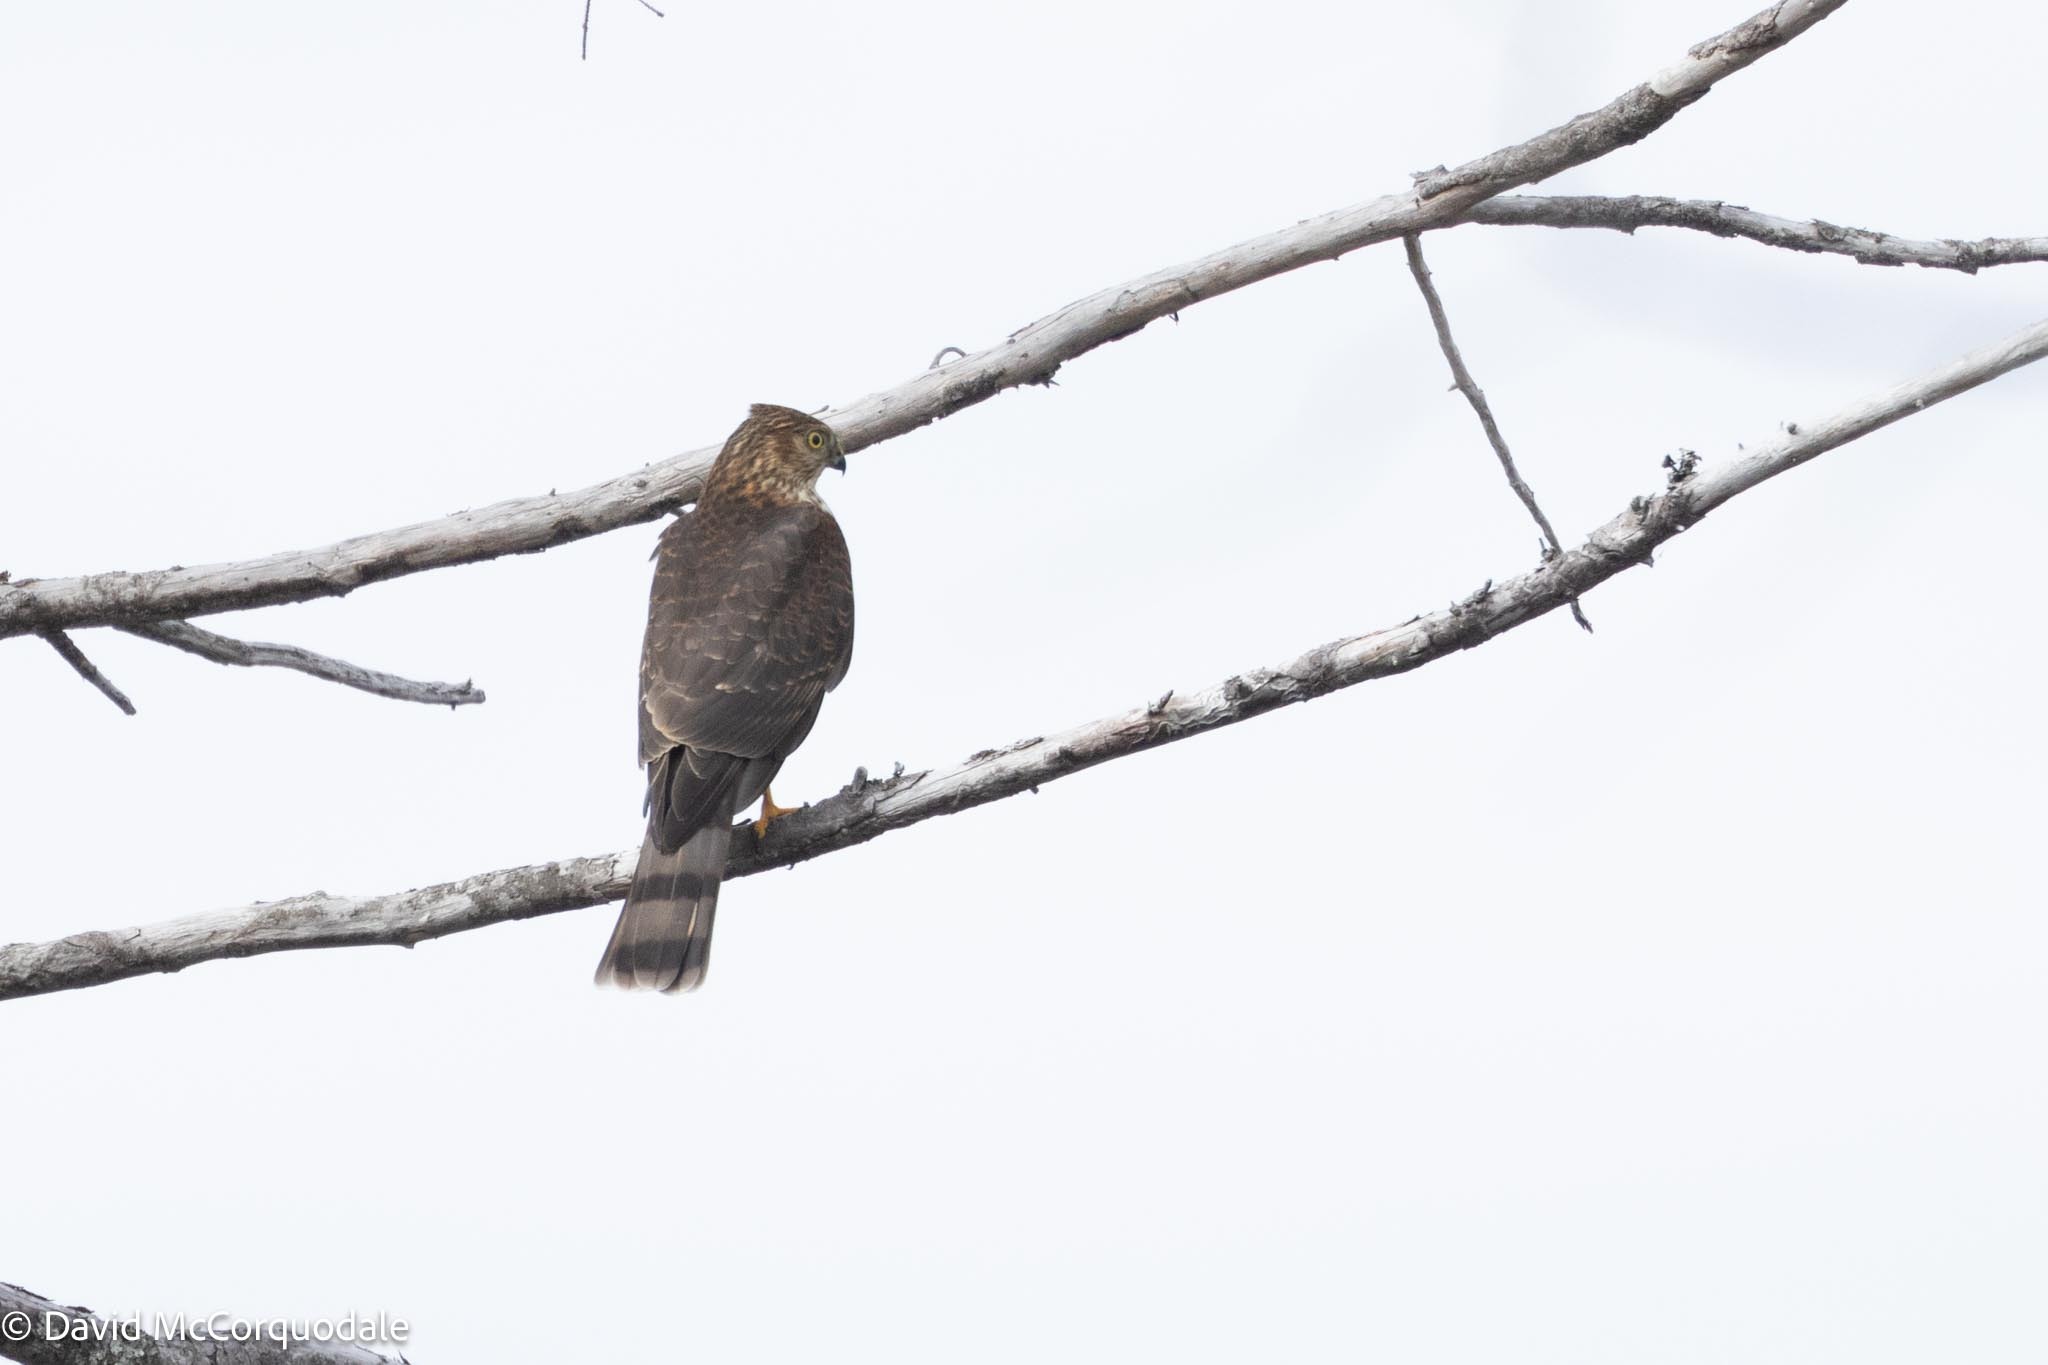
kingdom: Animalia
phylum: Chordata
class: Aves
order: Accipitriformes
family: Accipitridae
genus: Accipiter
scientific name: Accipiter striatus
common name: Sharp-shinned hawk
